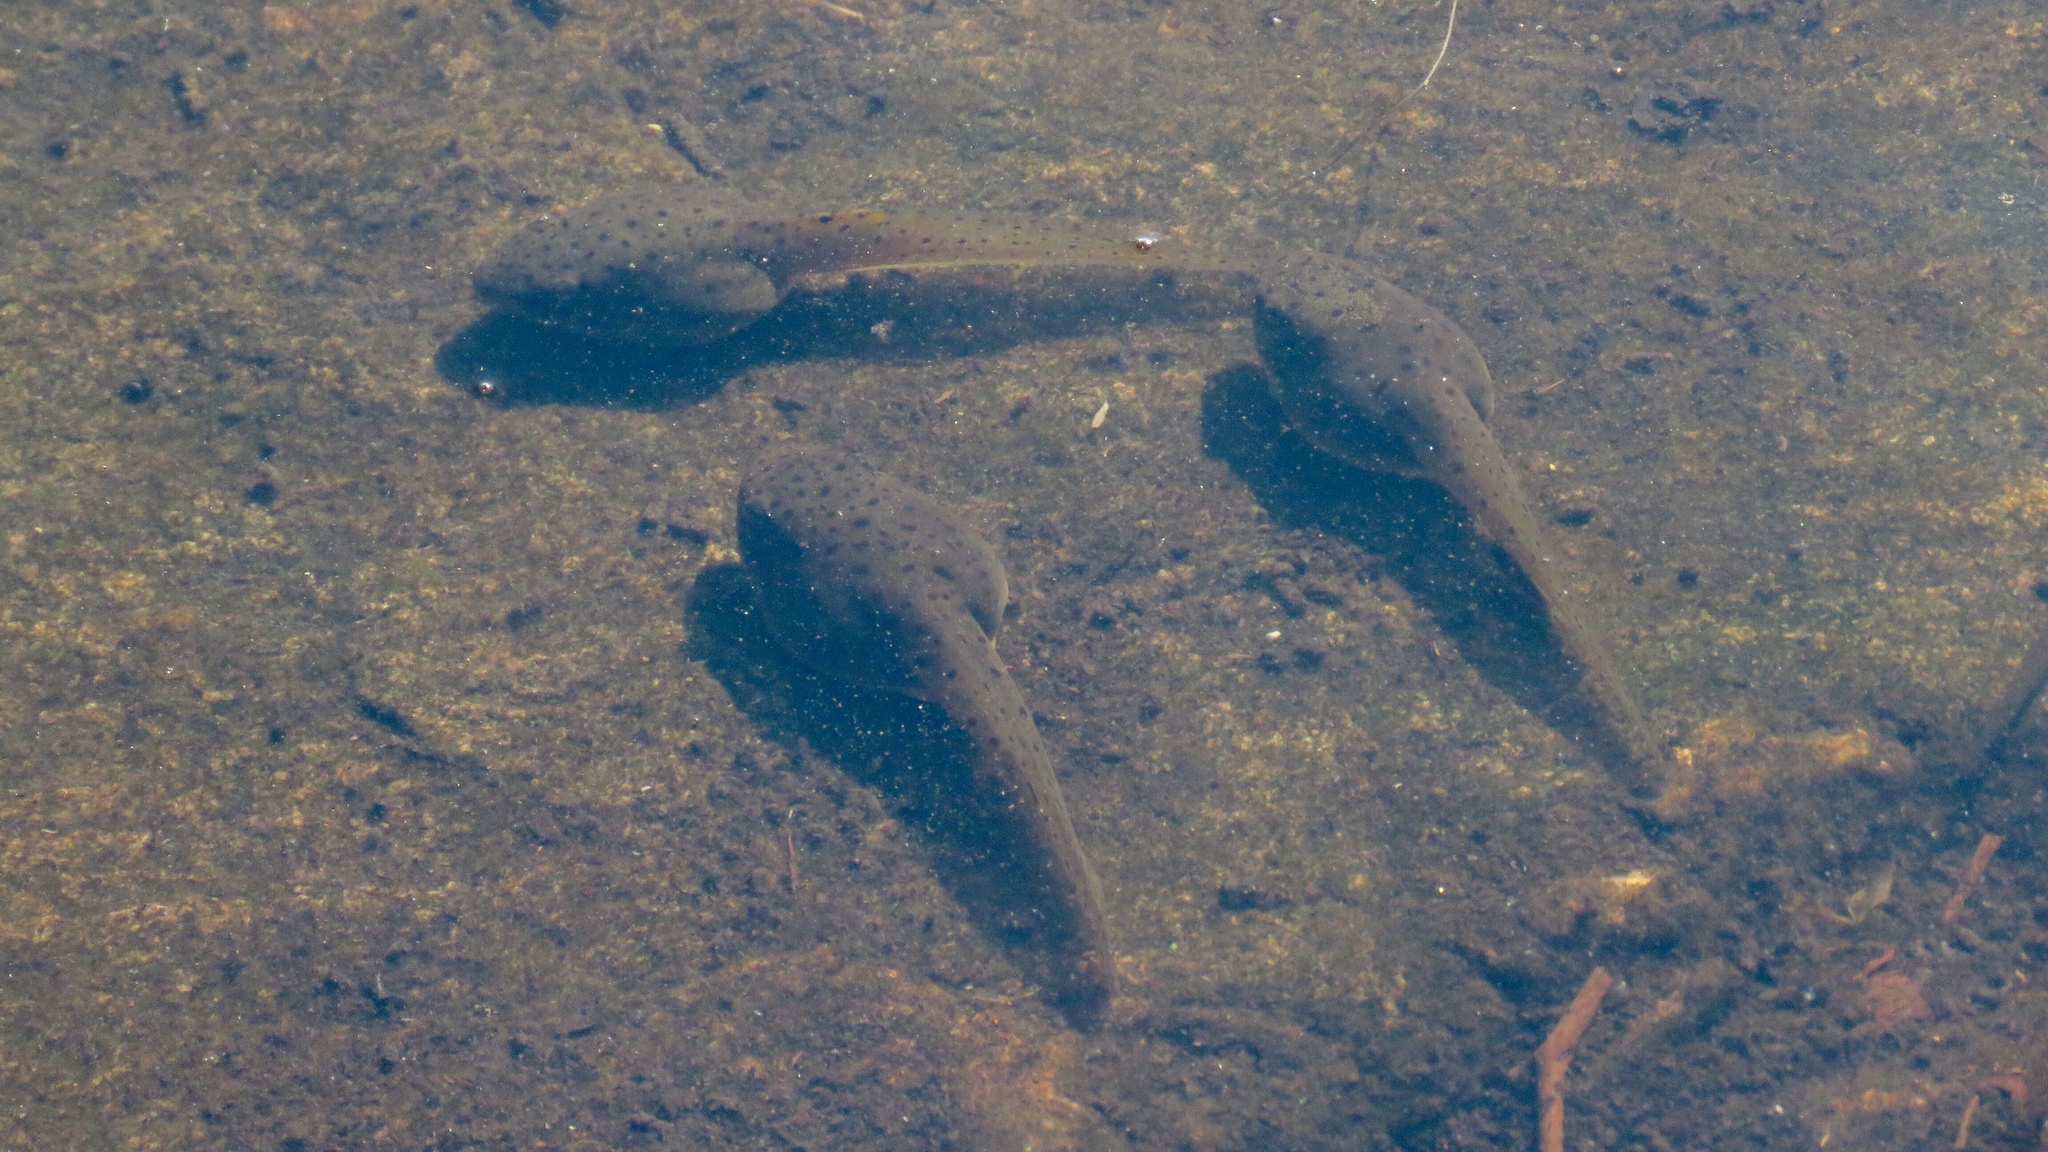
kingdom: Animalia
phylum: Chordata
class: Amphibia
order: Anura
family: Ranidae
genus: Lithobates
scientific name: Lithobates catesbeianus
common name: American bullfrog
